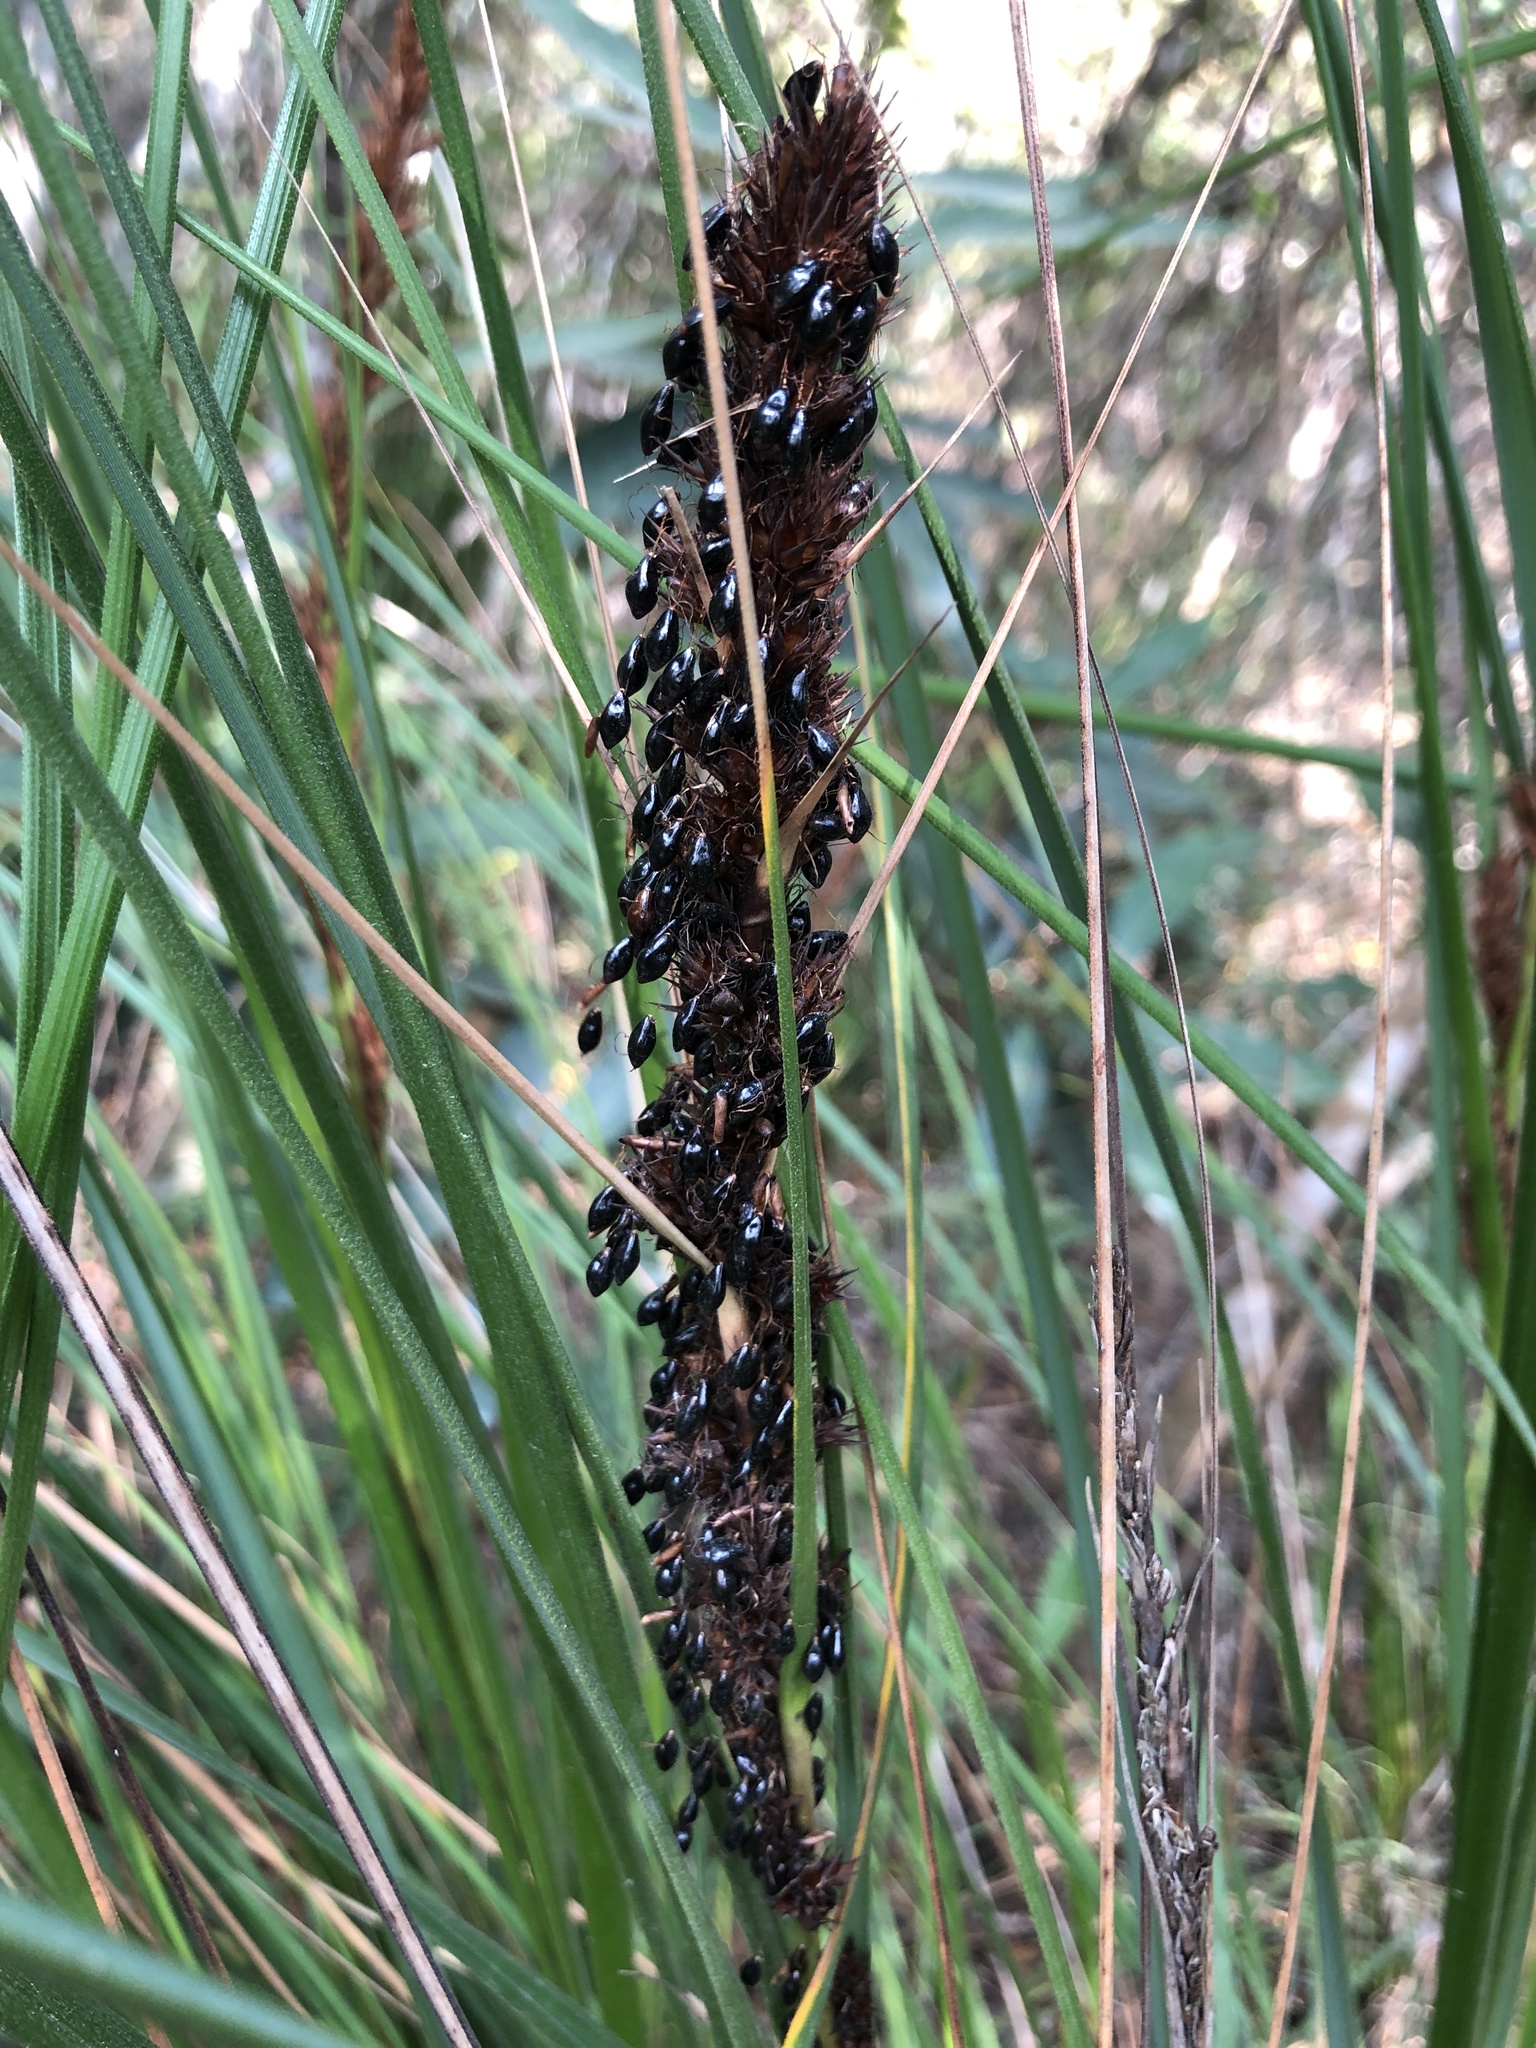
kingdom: Plantae
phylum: Tracheophyta
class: Liliopsida
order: Poales
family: Cyperaceae
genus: Gahnia
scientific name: Gahnia tristis
